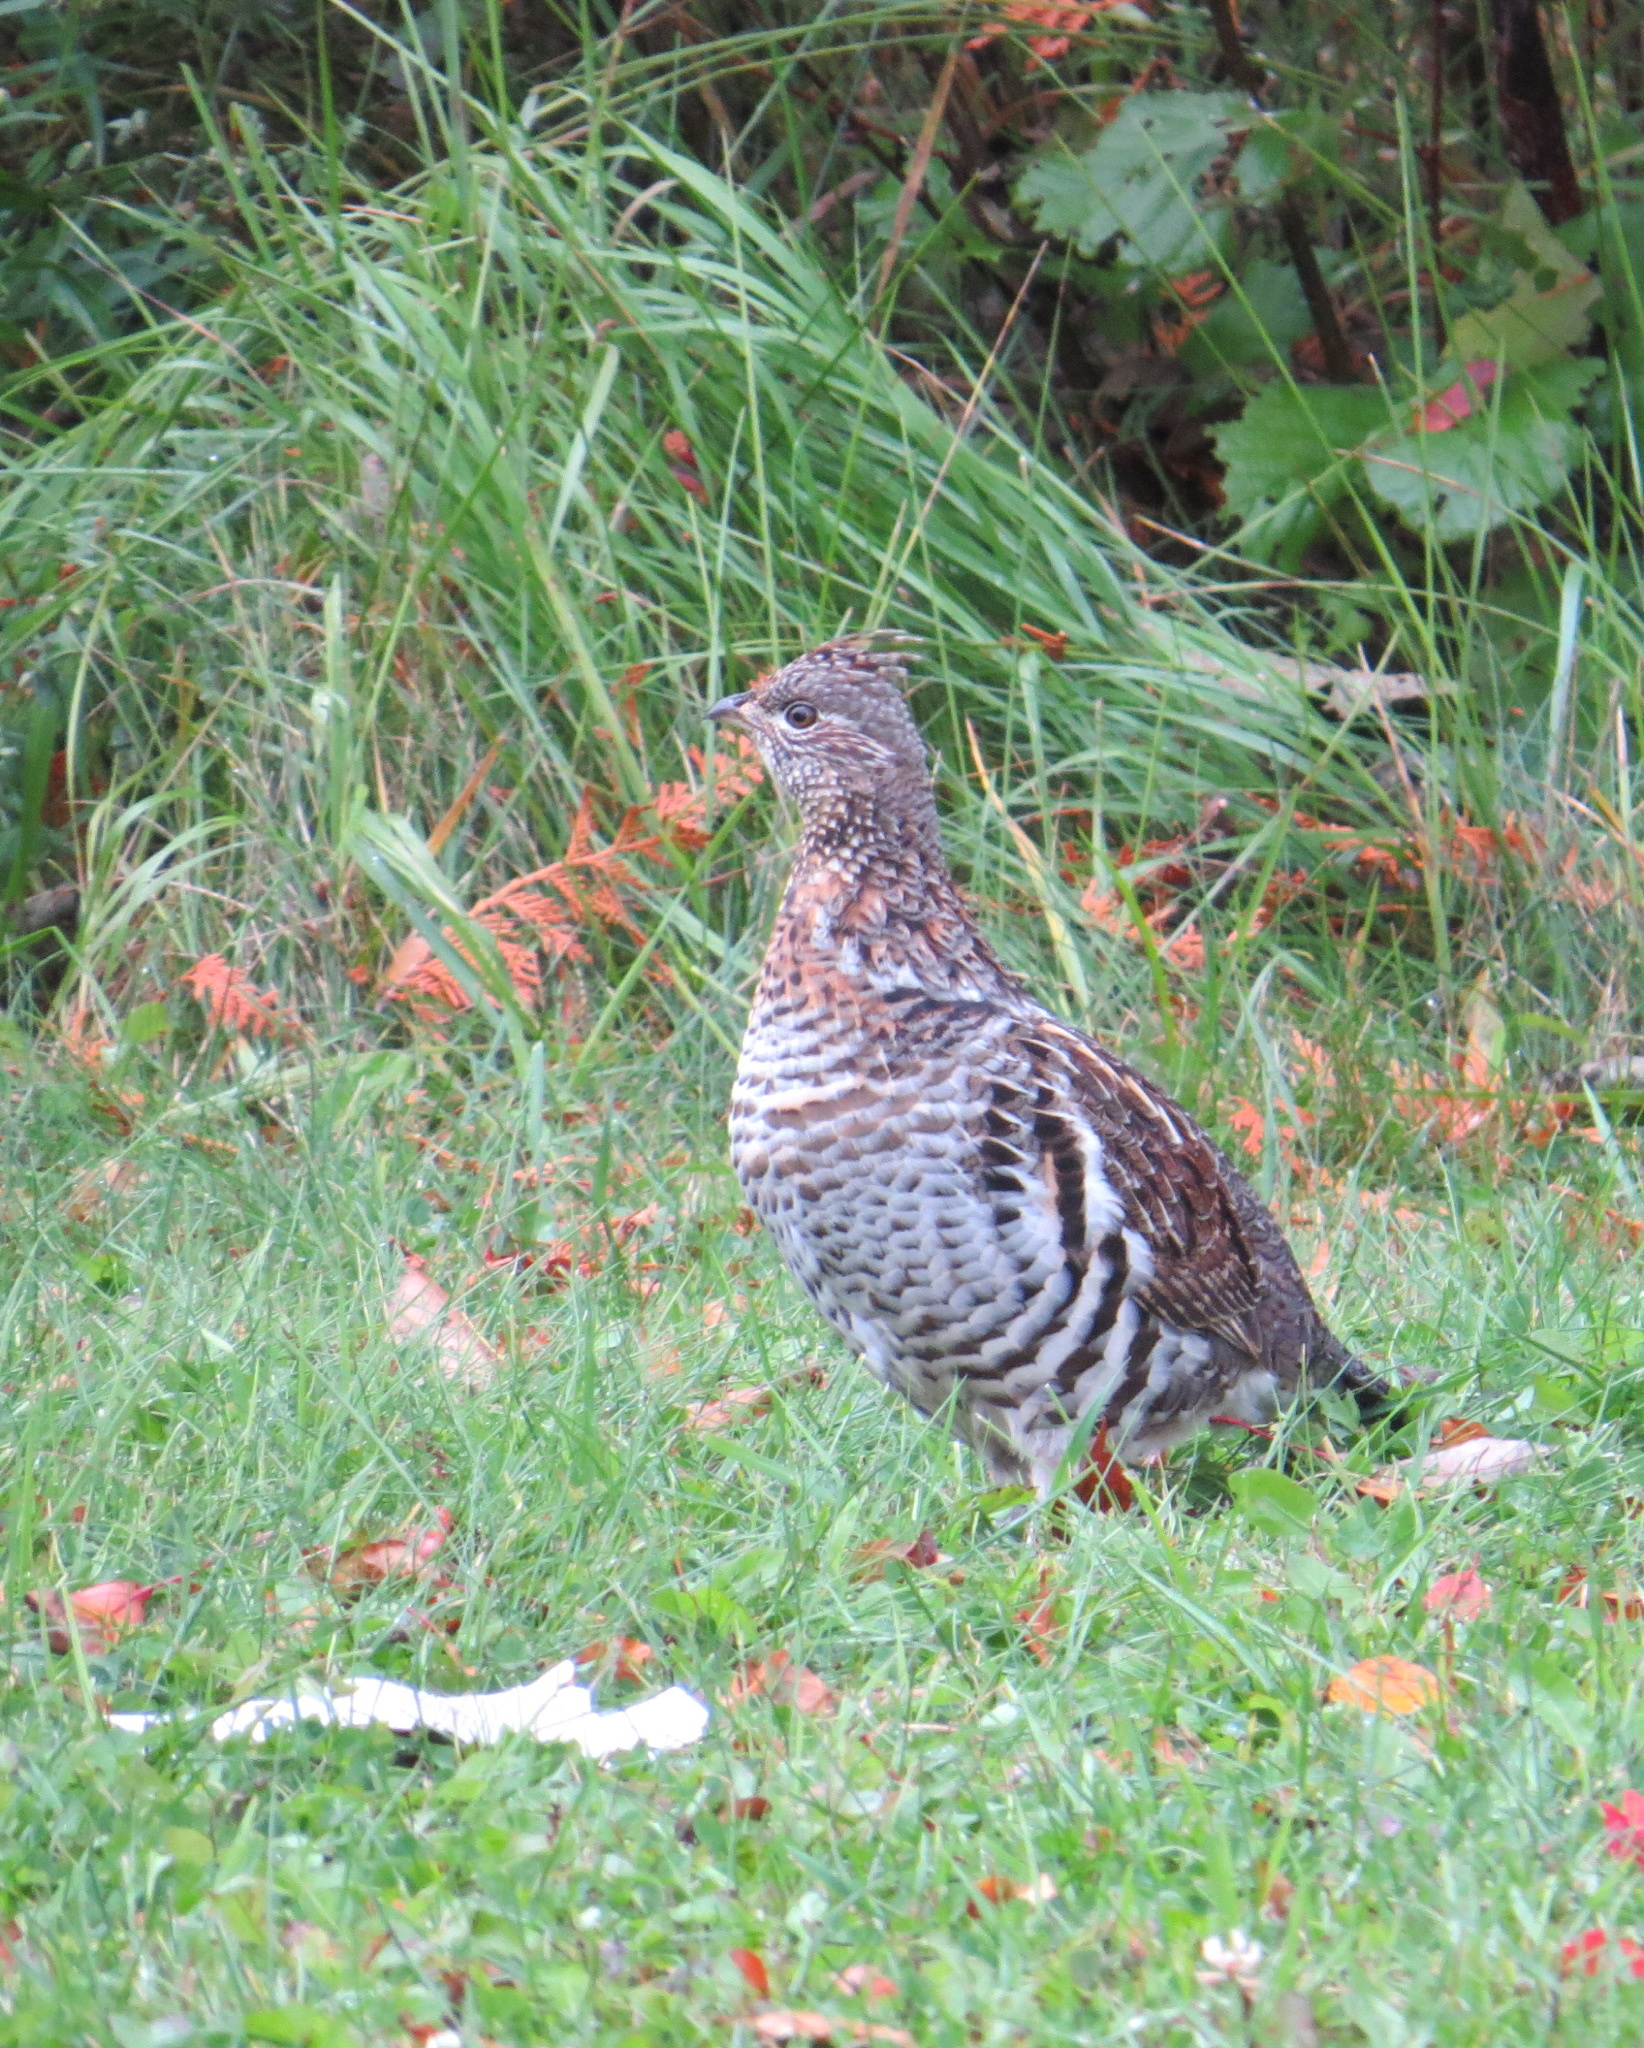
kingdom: Animalia
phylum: Chordata
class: Aves
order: Galliformes
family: Phasianidae
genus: Bonasa
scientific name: Bonasa umbellus
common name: Ruffed grouse
